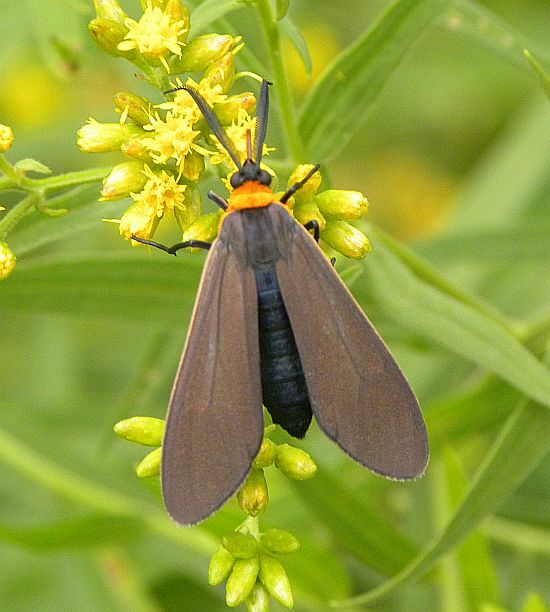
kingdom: Animalia
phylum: Arthropoda
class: Insecta
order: Lepidoptera
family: Erebidae
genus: Cisseps
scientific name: Cisseps fulvicollis
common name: Yellow-collared scape moth
